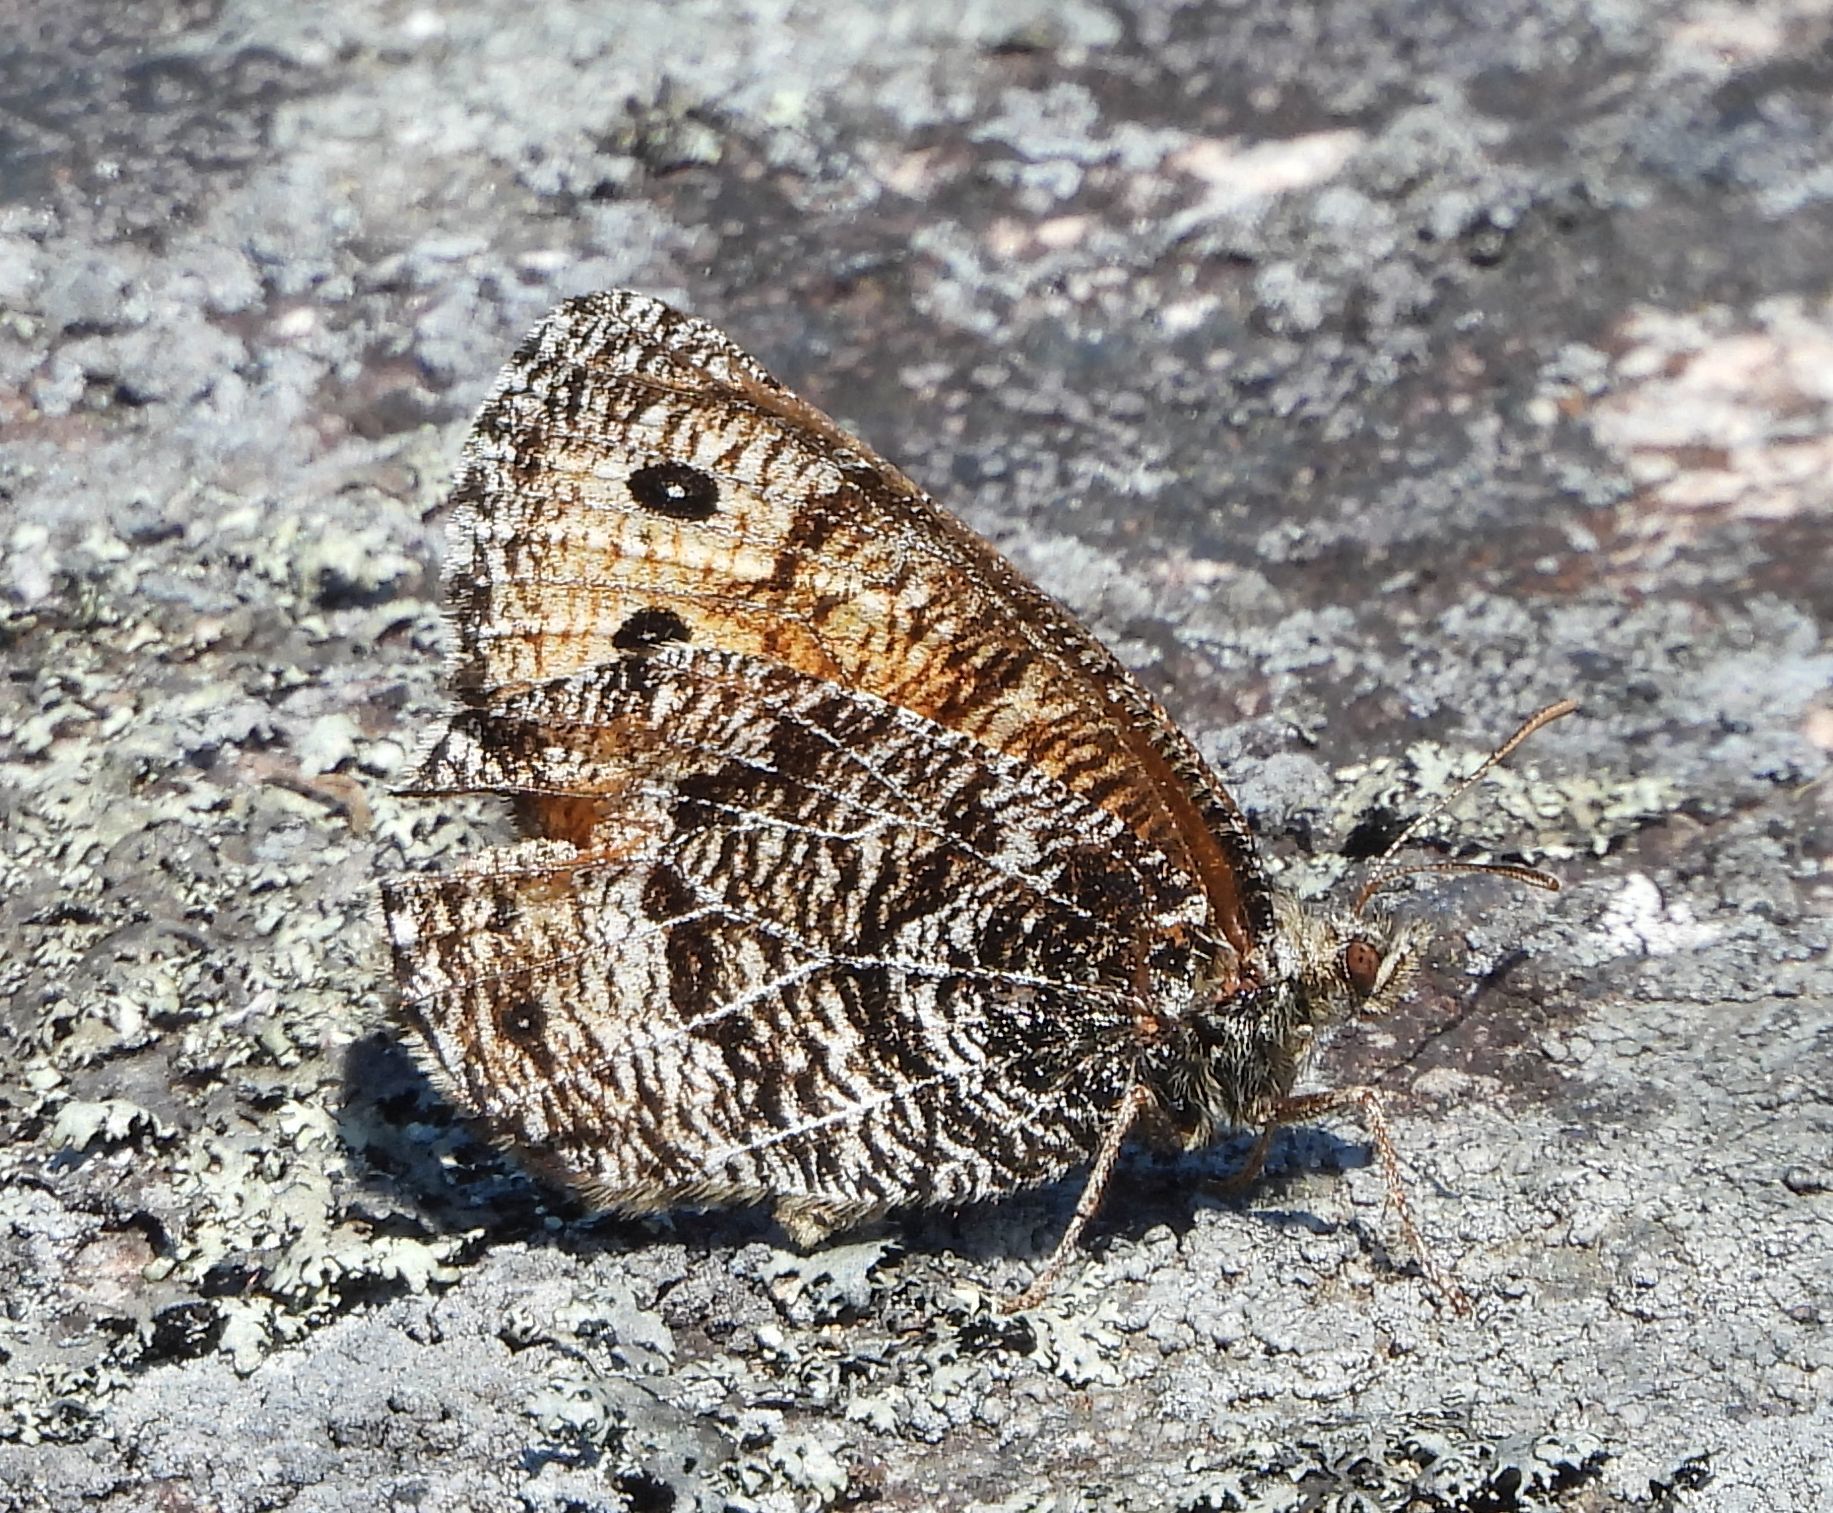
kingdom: Animalia
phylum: Arthropoda
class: Insecta
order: Lepidoptera
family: Nymphalidae
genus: Oeneis
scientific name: Oeneis chryxus
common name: Chryxus arctic
